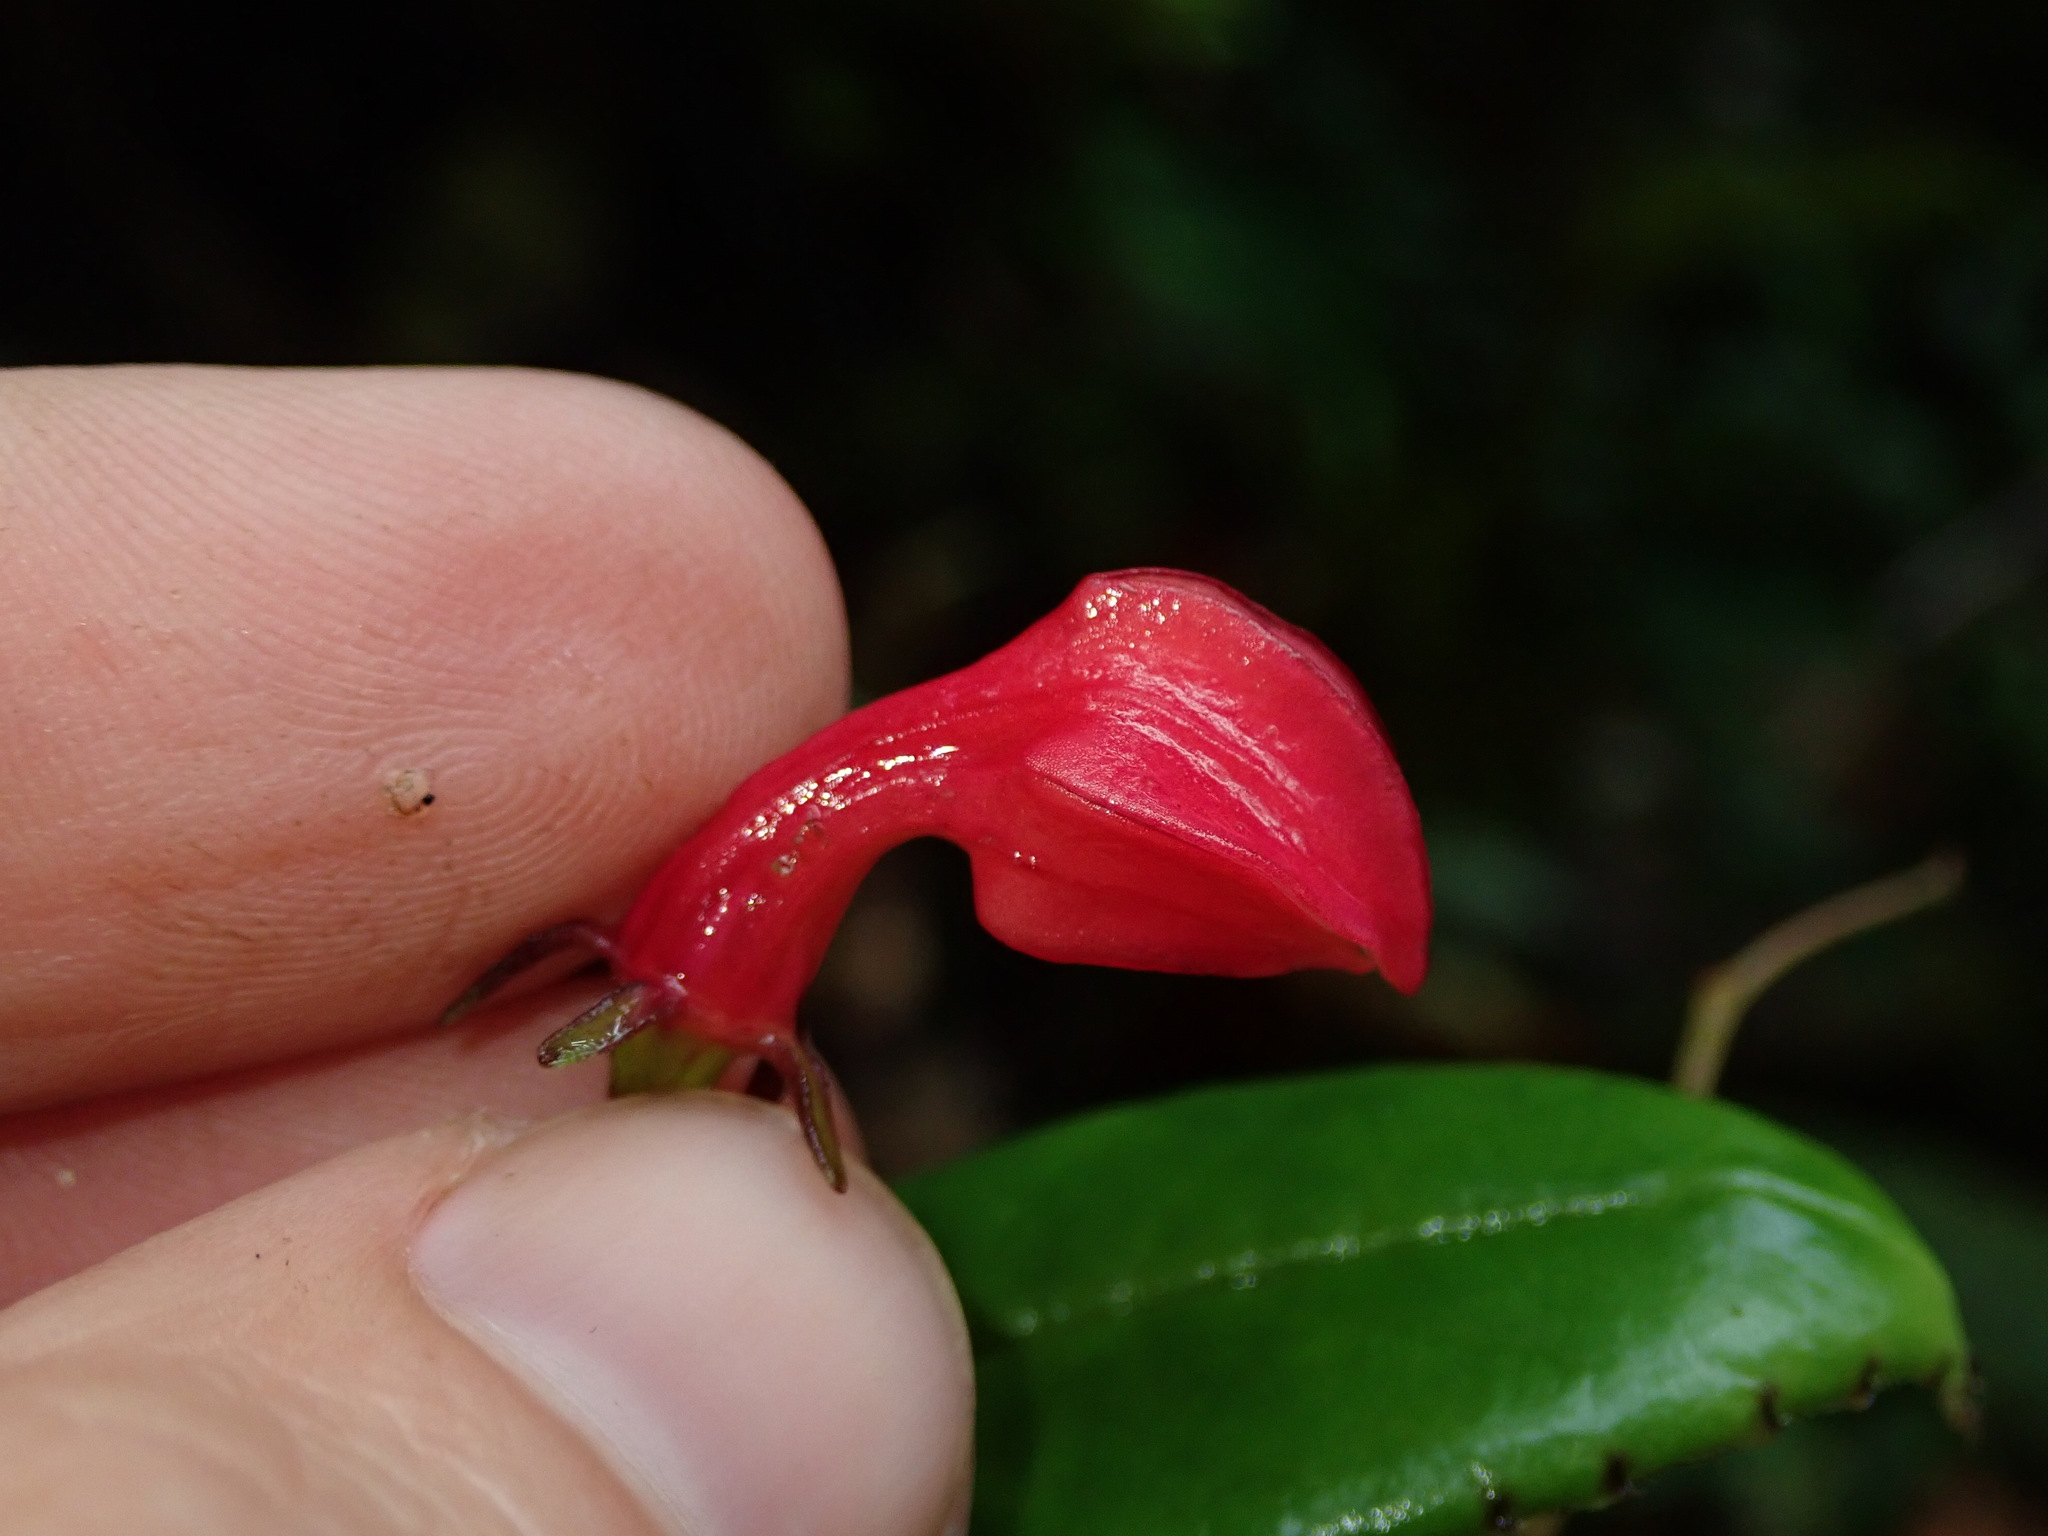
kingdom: Plantae
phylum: Tracheophyta
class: Magnoliopsida
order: Asterales
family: Campanulaceae
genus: Burmeistera
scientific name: Burmeistera jostii
